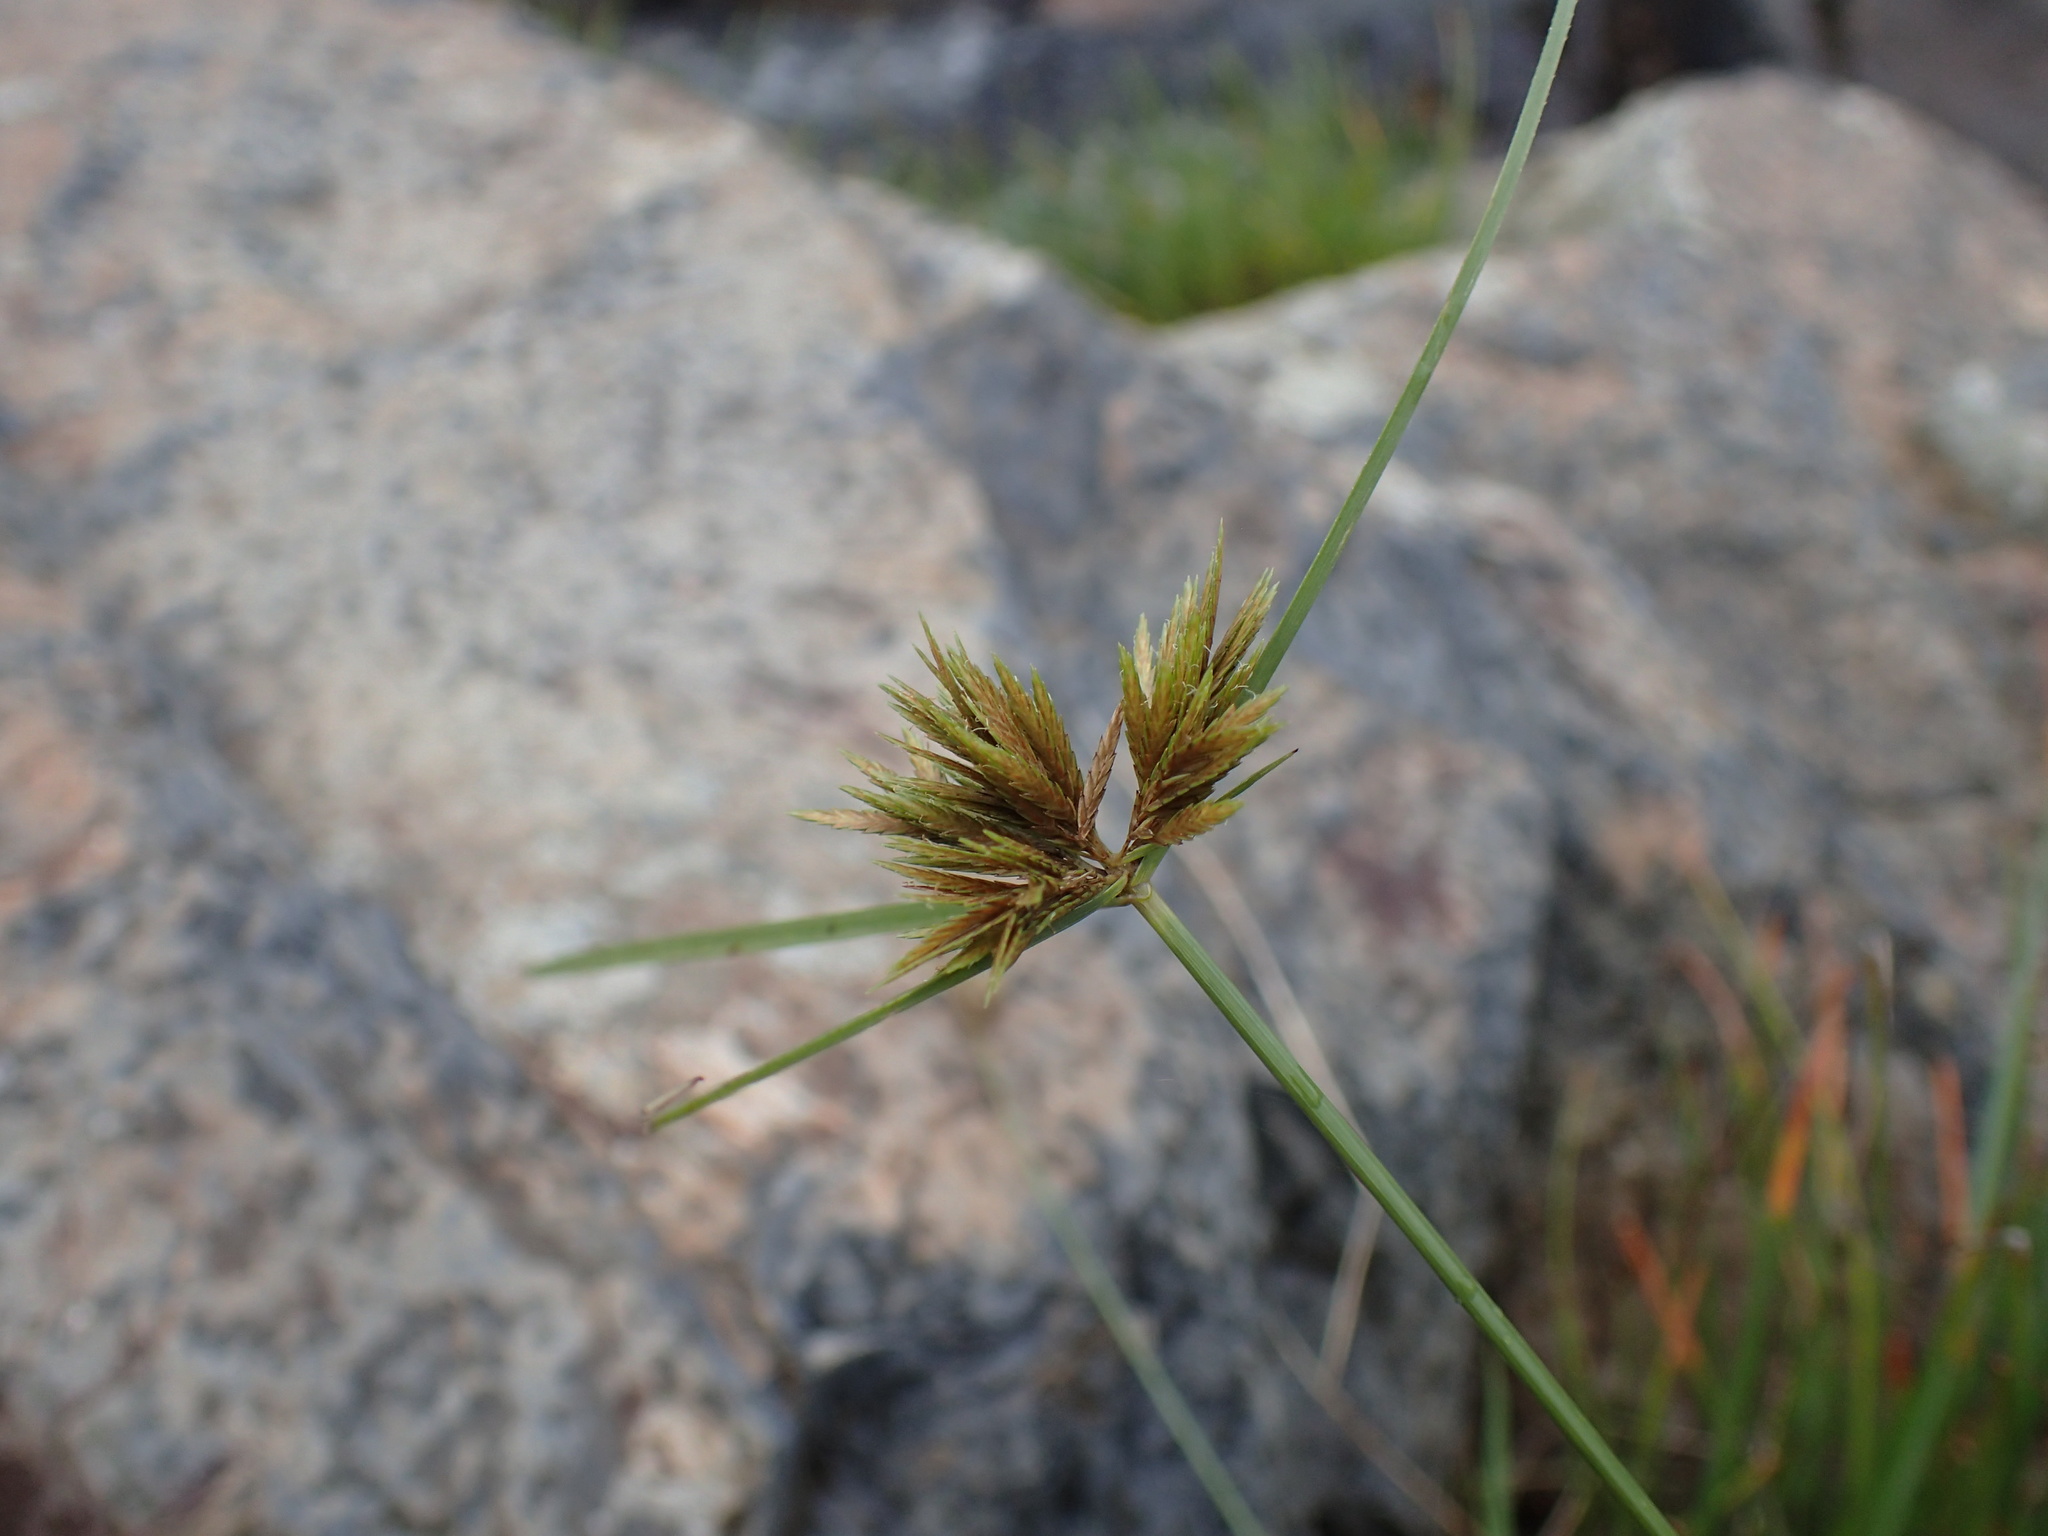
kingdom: Plantae
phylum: Tracheophyta
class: Liliopsida
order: Poales
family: Cyperaceae
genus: Cyperus
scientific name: Cyperus polystachyos
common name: Bunchy flat sedge
